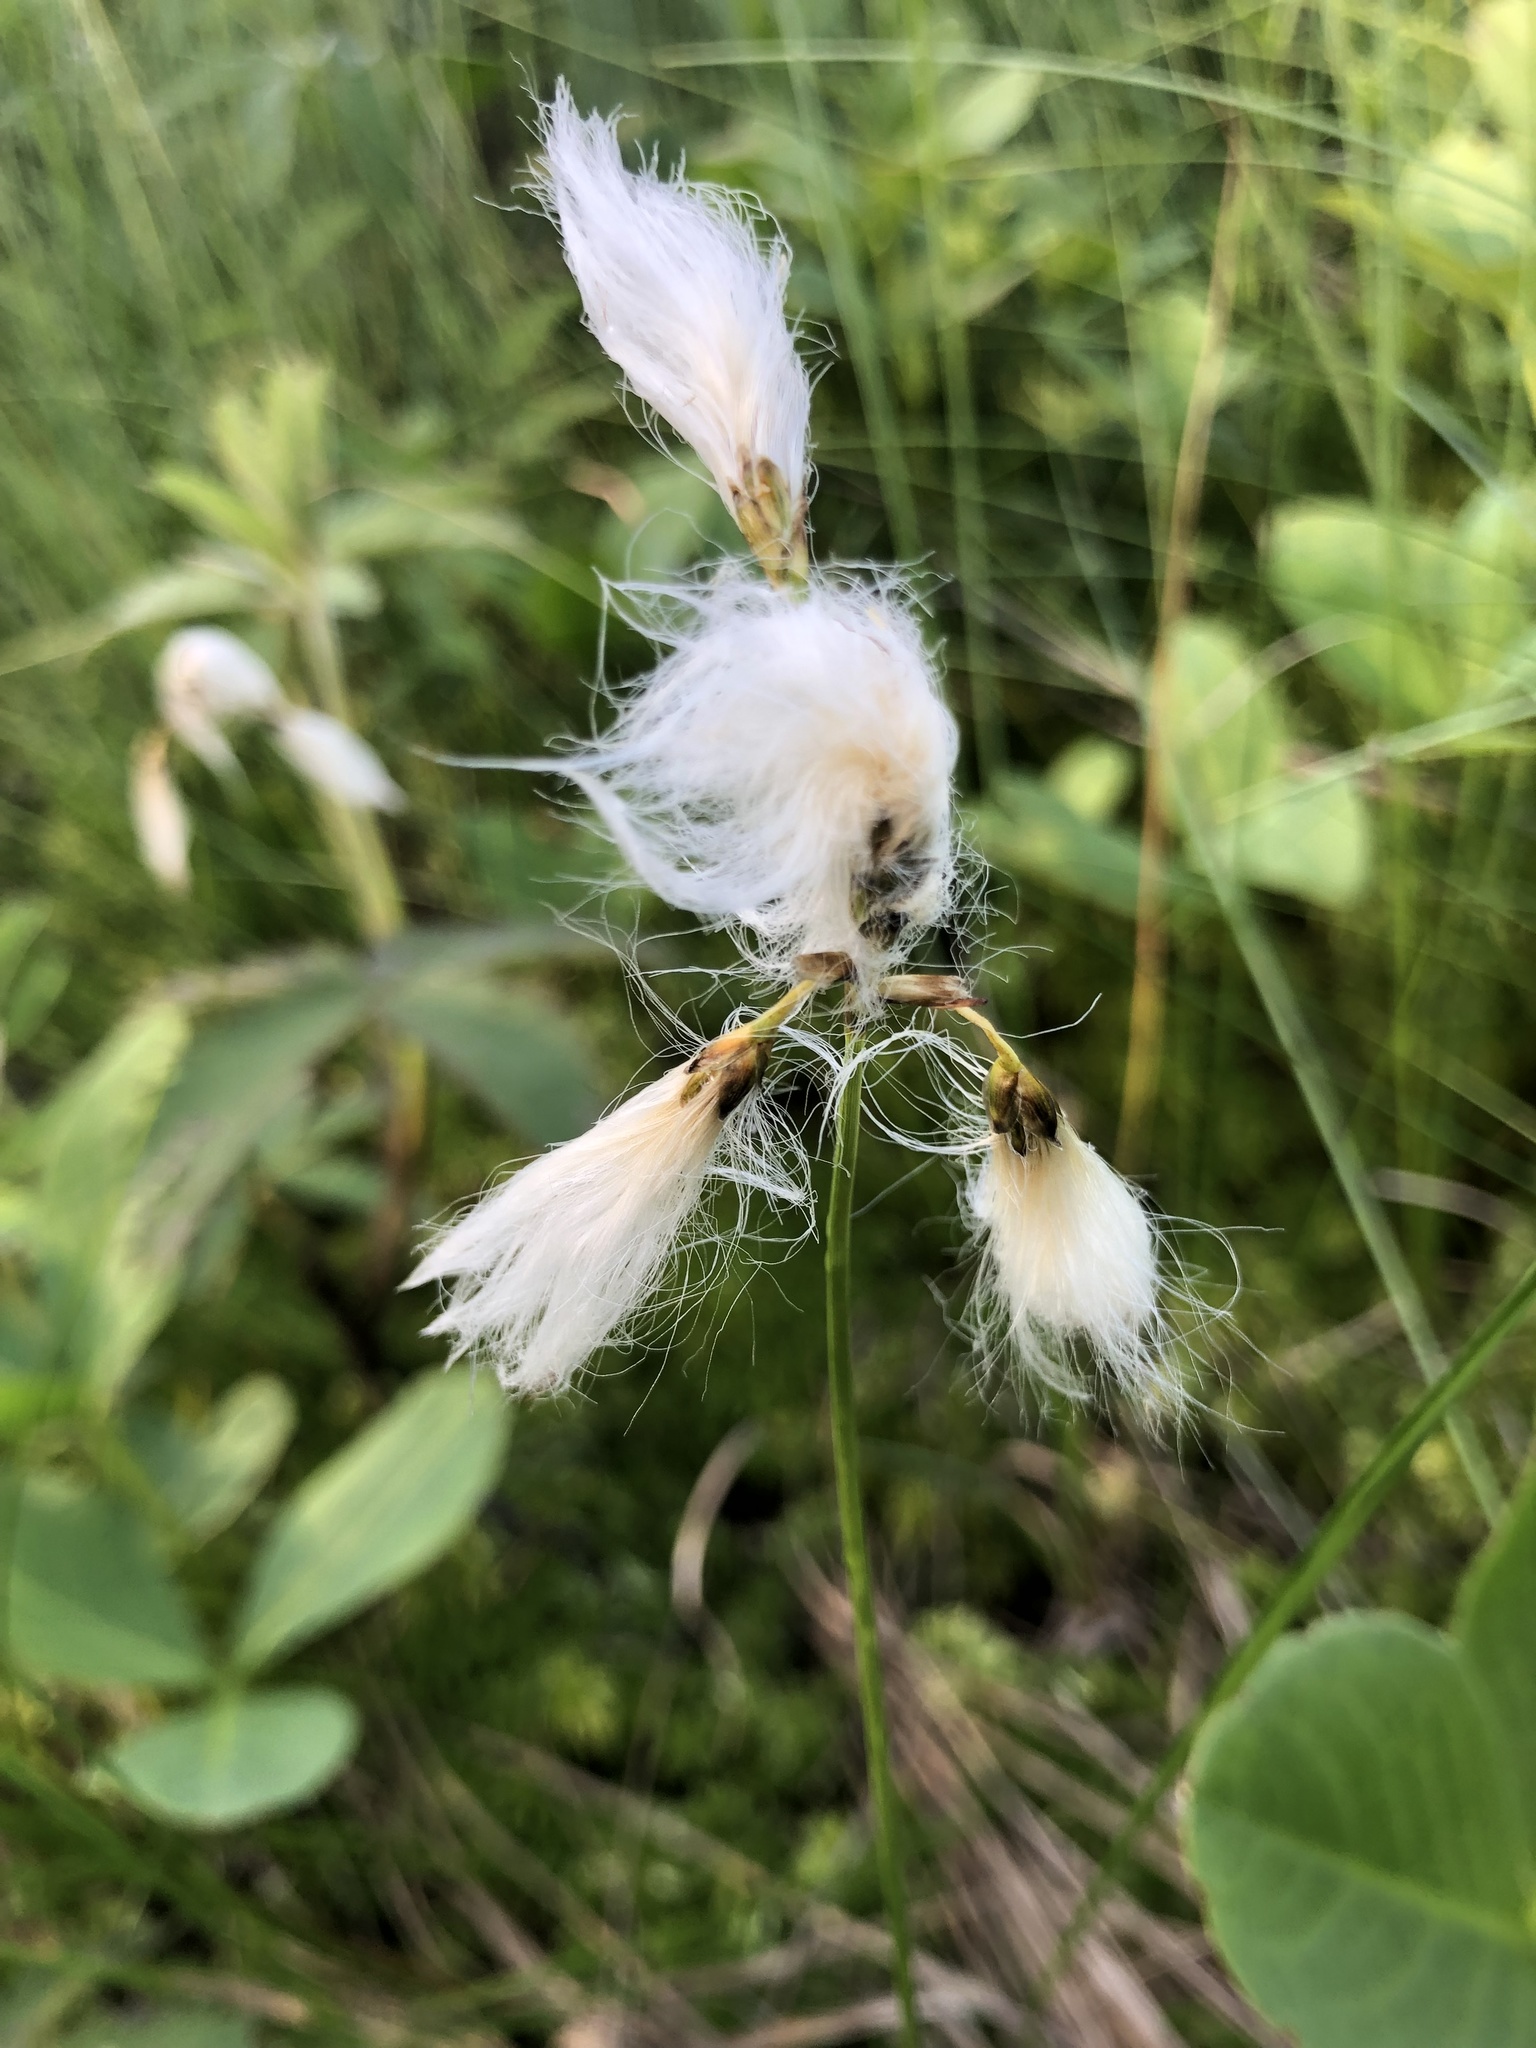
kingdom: Plantae
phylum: Tracheophyta
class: Liliopsida
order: Poales
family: Cyperaceae
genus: Eriophorum
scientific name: Eriophorum gracile
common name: Slender cottongrass
